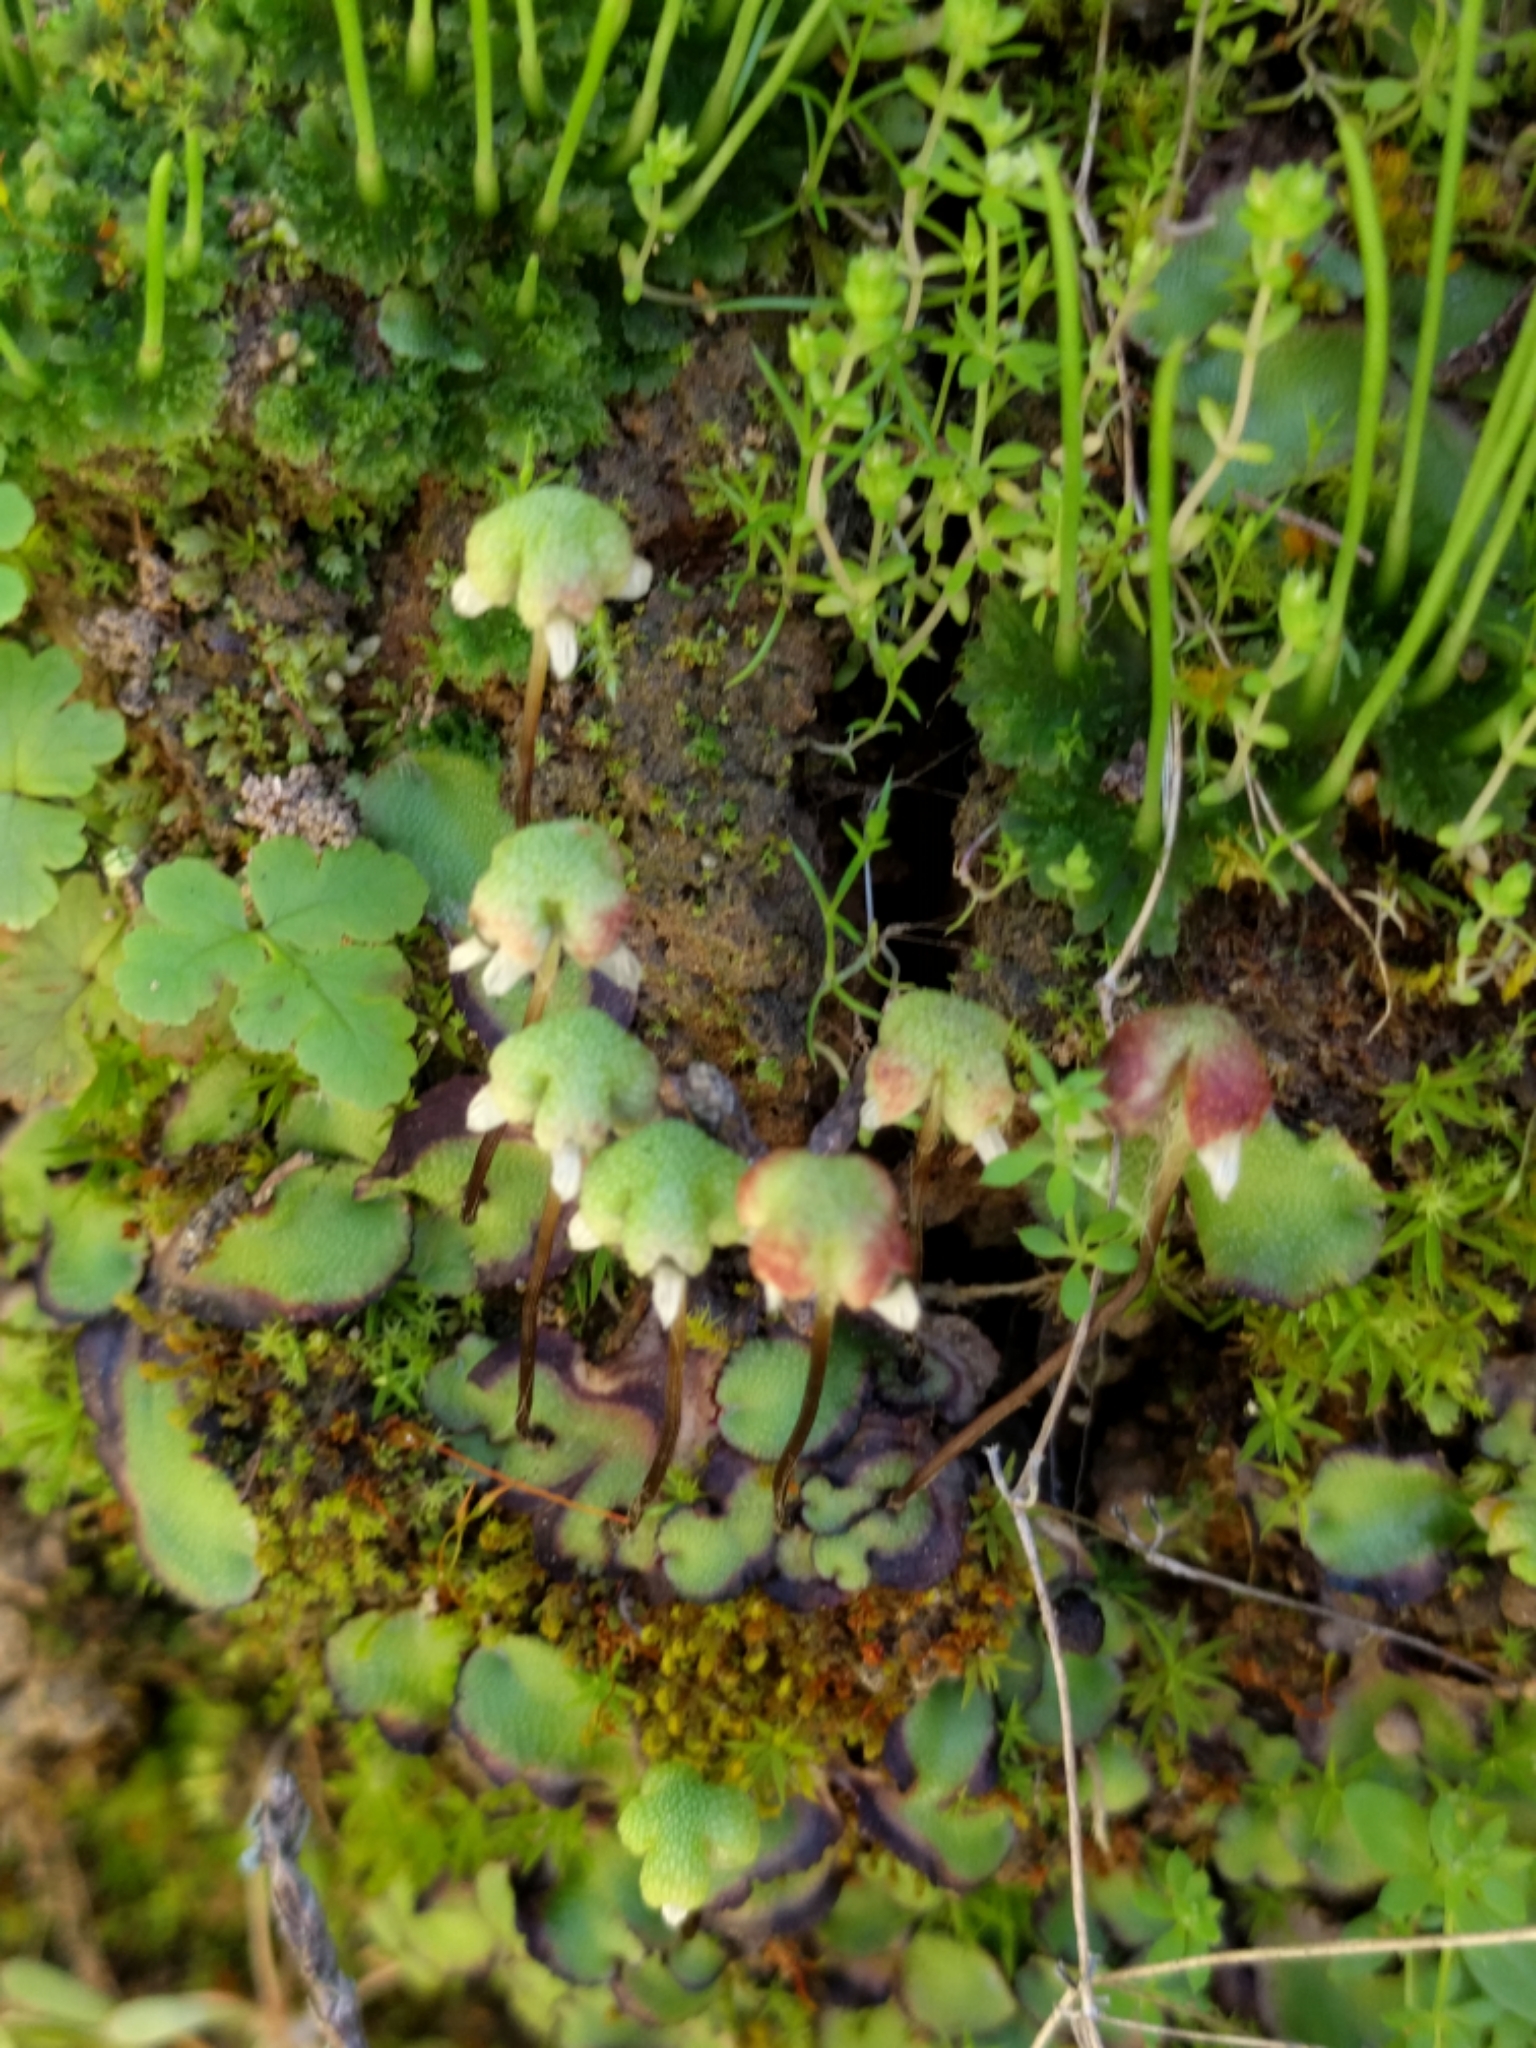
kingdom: Plantae
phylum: Marchantiophyta
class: Marchantiopsida
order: Marchantiales
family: Aytoniaceae
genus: Asterella
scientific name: Asterella californica
